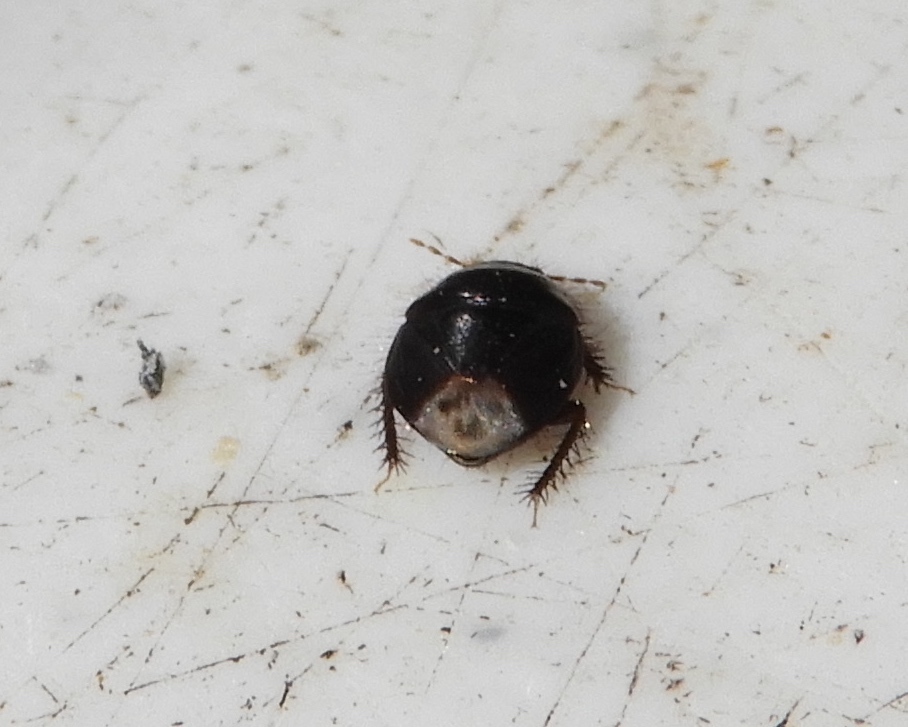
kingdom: Animalia
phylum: Arthropoda
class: Insecta
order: Hemiptera
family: Cydnidae
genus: Pangaeus
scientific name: Pangaeus bilineatus
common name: Burrower bug
